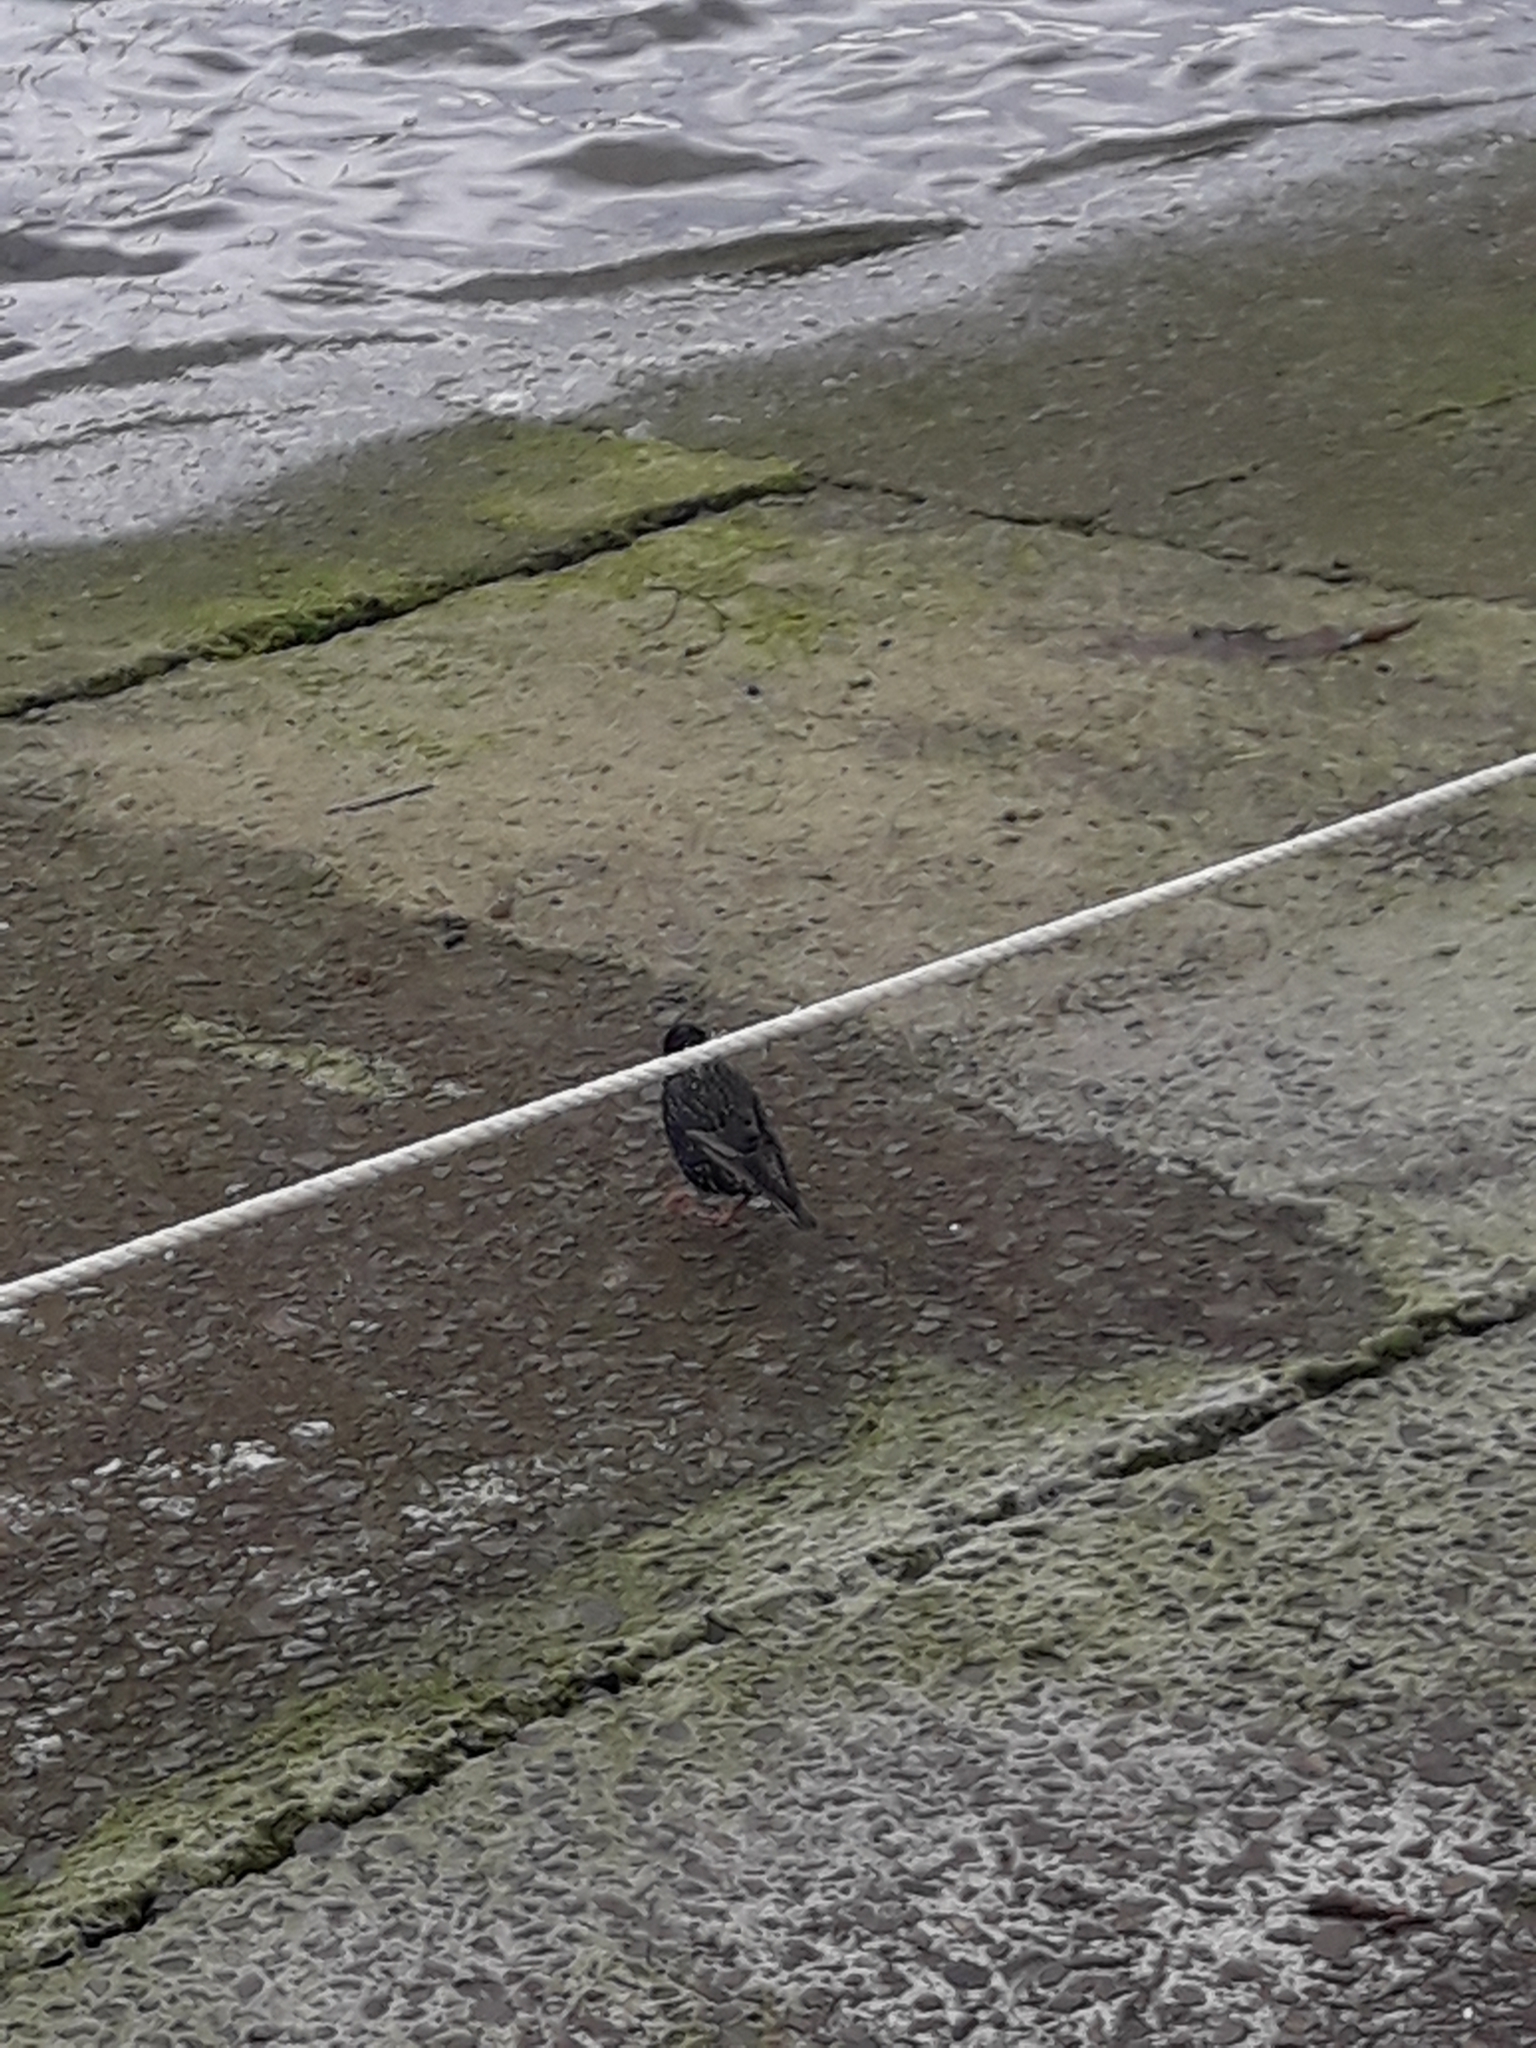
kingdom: Animalia
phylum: Chordata
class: Aves
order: Passeriformes
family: Sturnidae
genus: Sturnus
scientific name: Sturnus vulgaris
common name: Common starling
